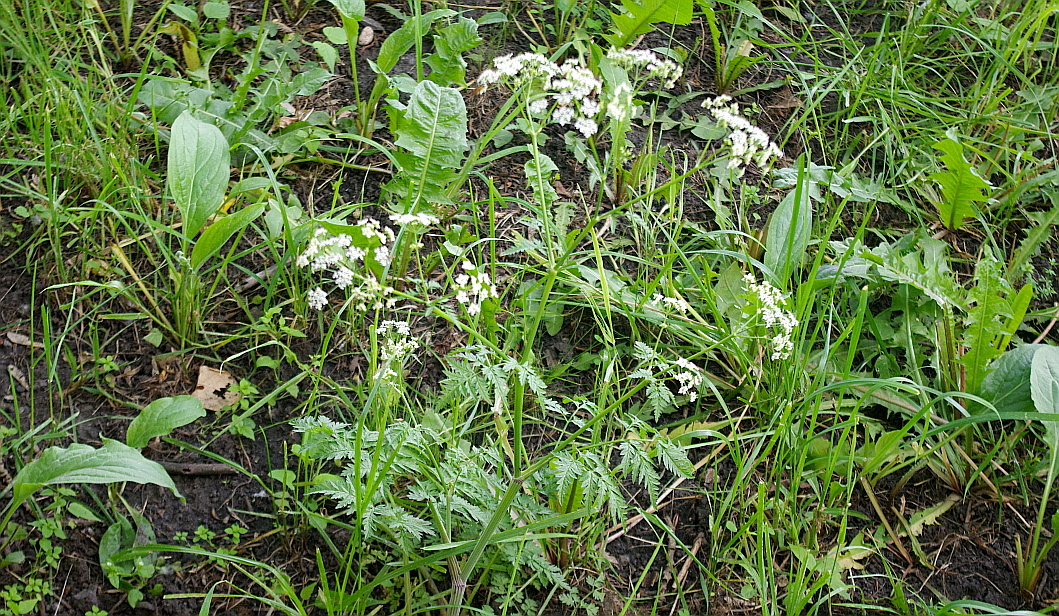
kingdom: Plantae
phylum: Tracheophyta
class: Magnoliopsida
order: Apiales
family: Apiaceae
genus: Anthriscus
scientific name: Anthriscus sylvestris
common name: Cow parsley
